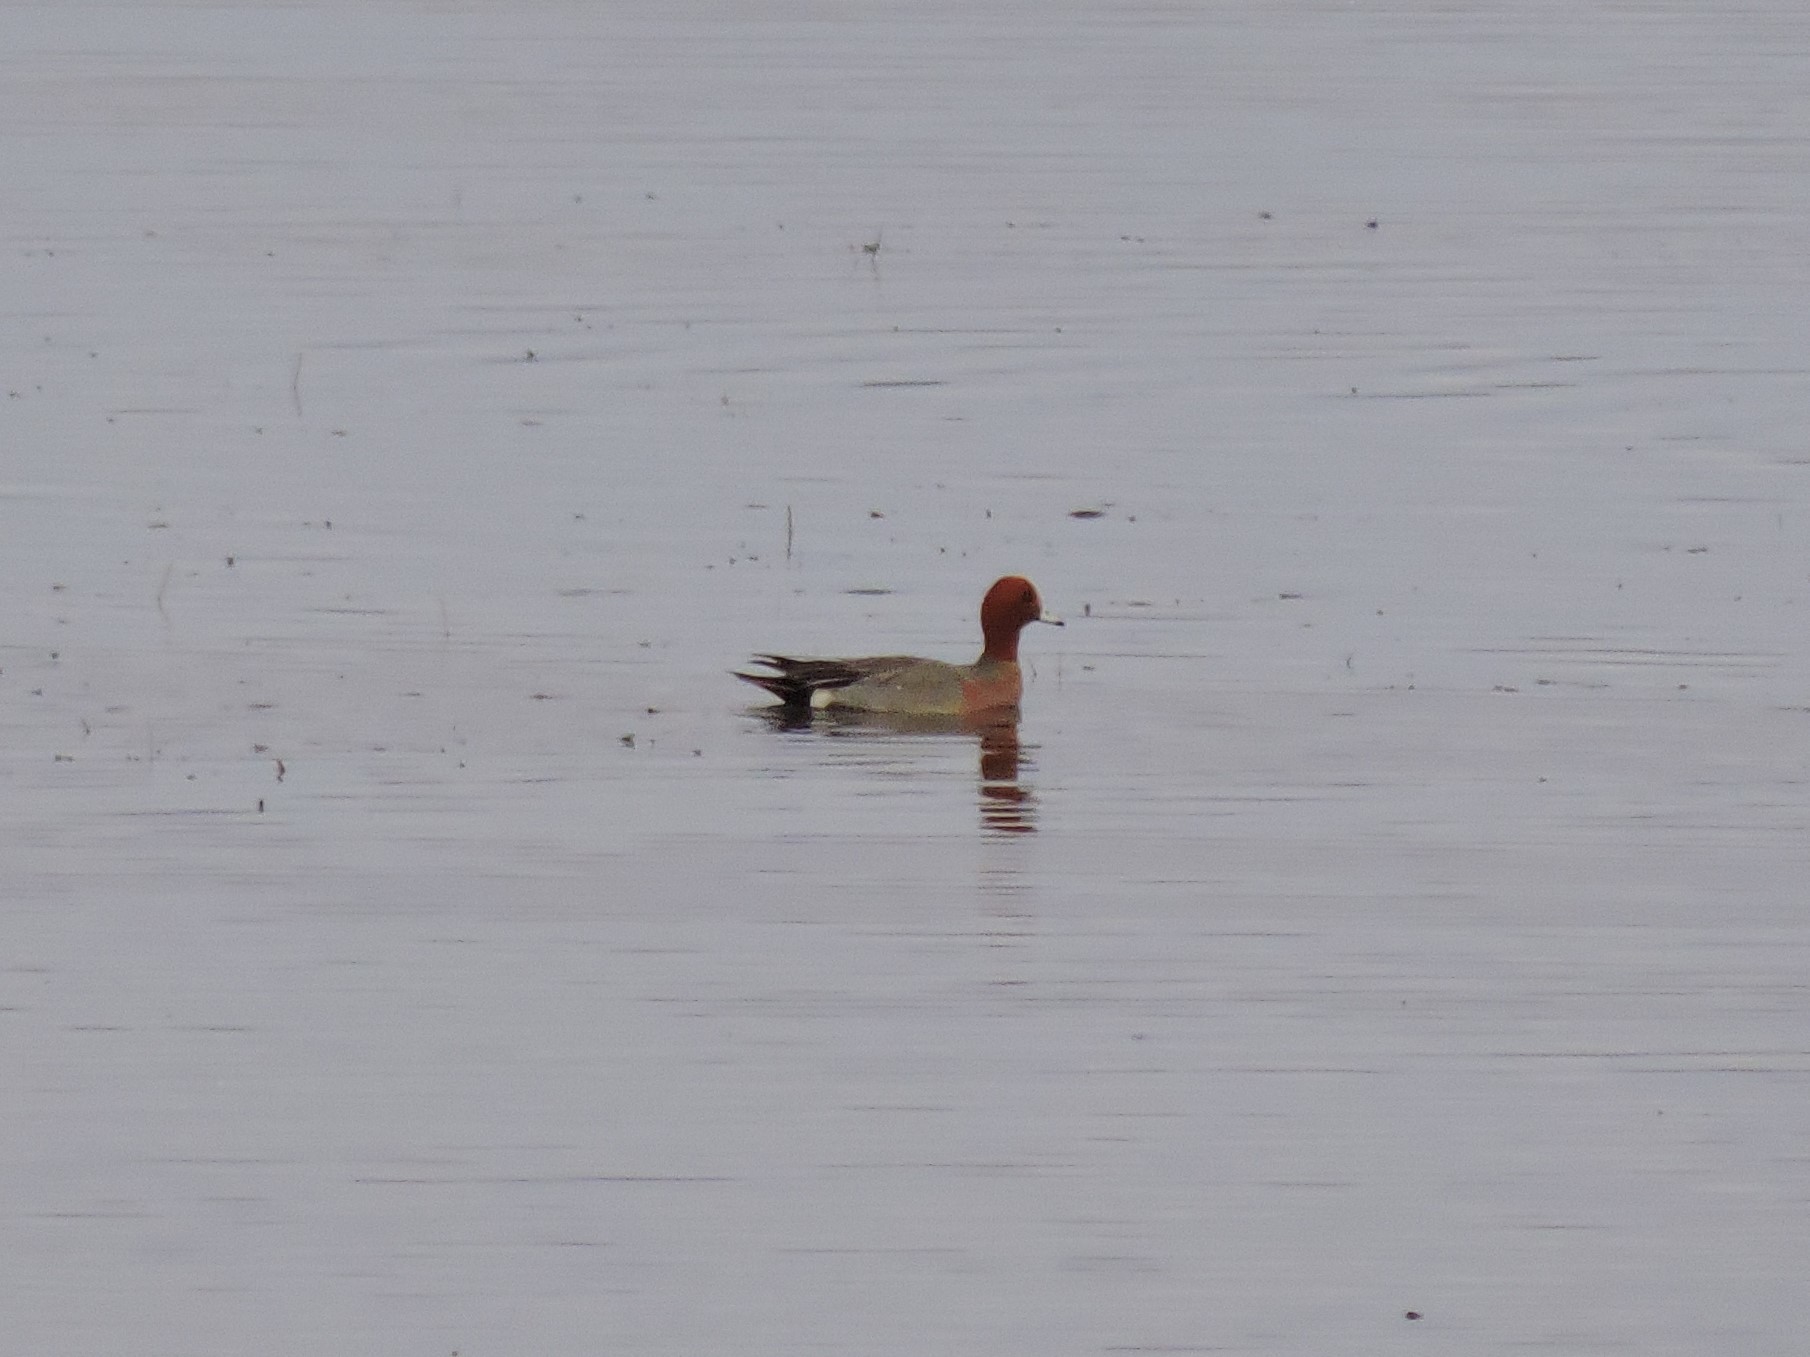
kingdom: Animalia
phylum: Chordata
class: Aves
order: Anseriformes
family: Anatidae
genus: Mareca
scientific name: Mareca penelope
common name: Eurasian wigeon
